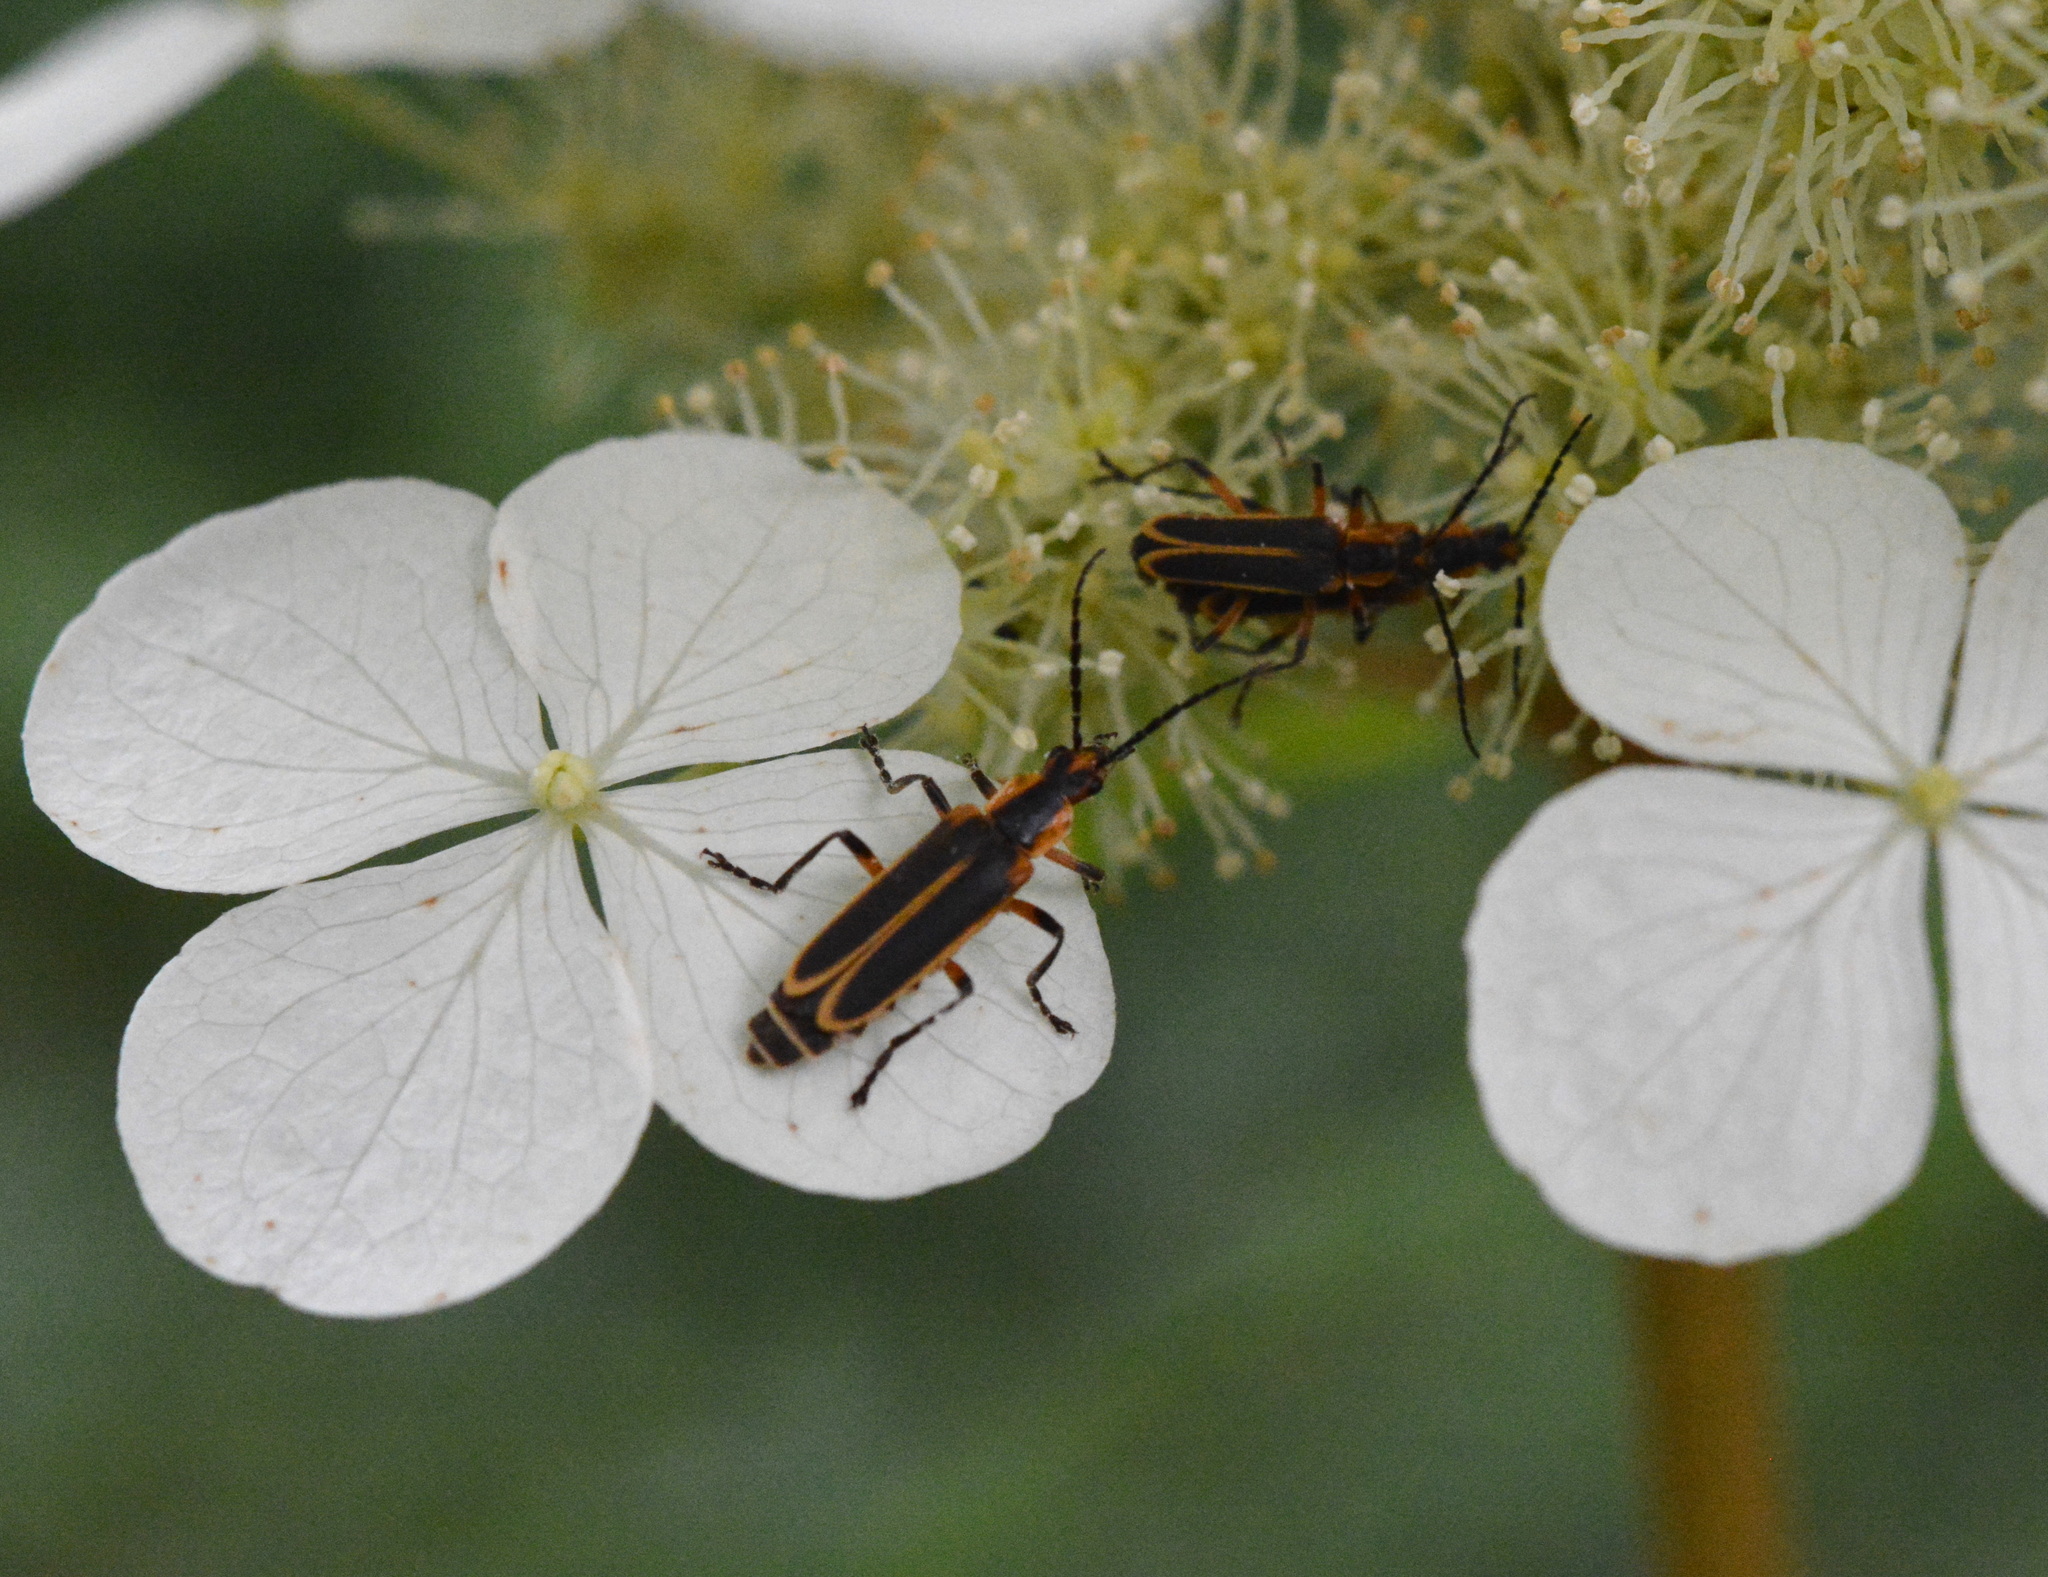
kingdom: Animalia
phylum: Arthropoda
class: Insecta
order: Coleoptera
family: Cantharidae
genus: Chauliognathus
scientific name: Chauliognathus marginatus
